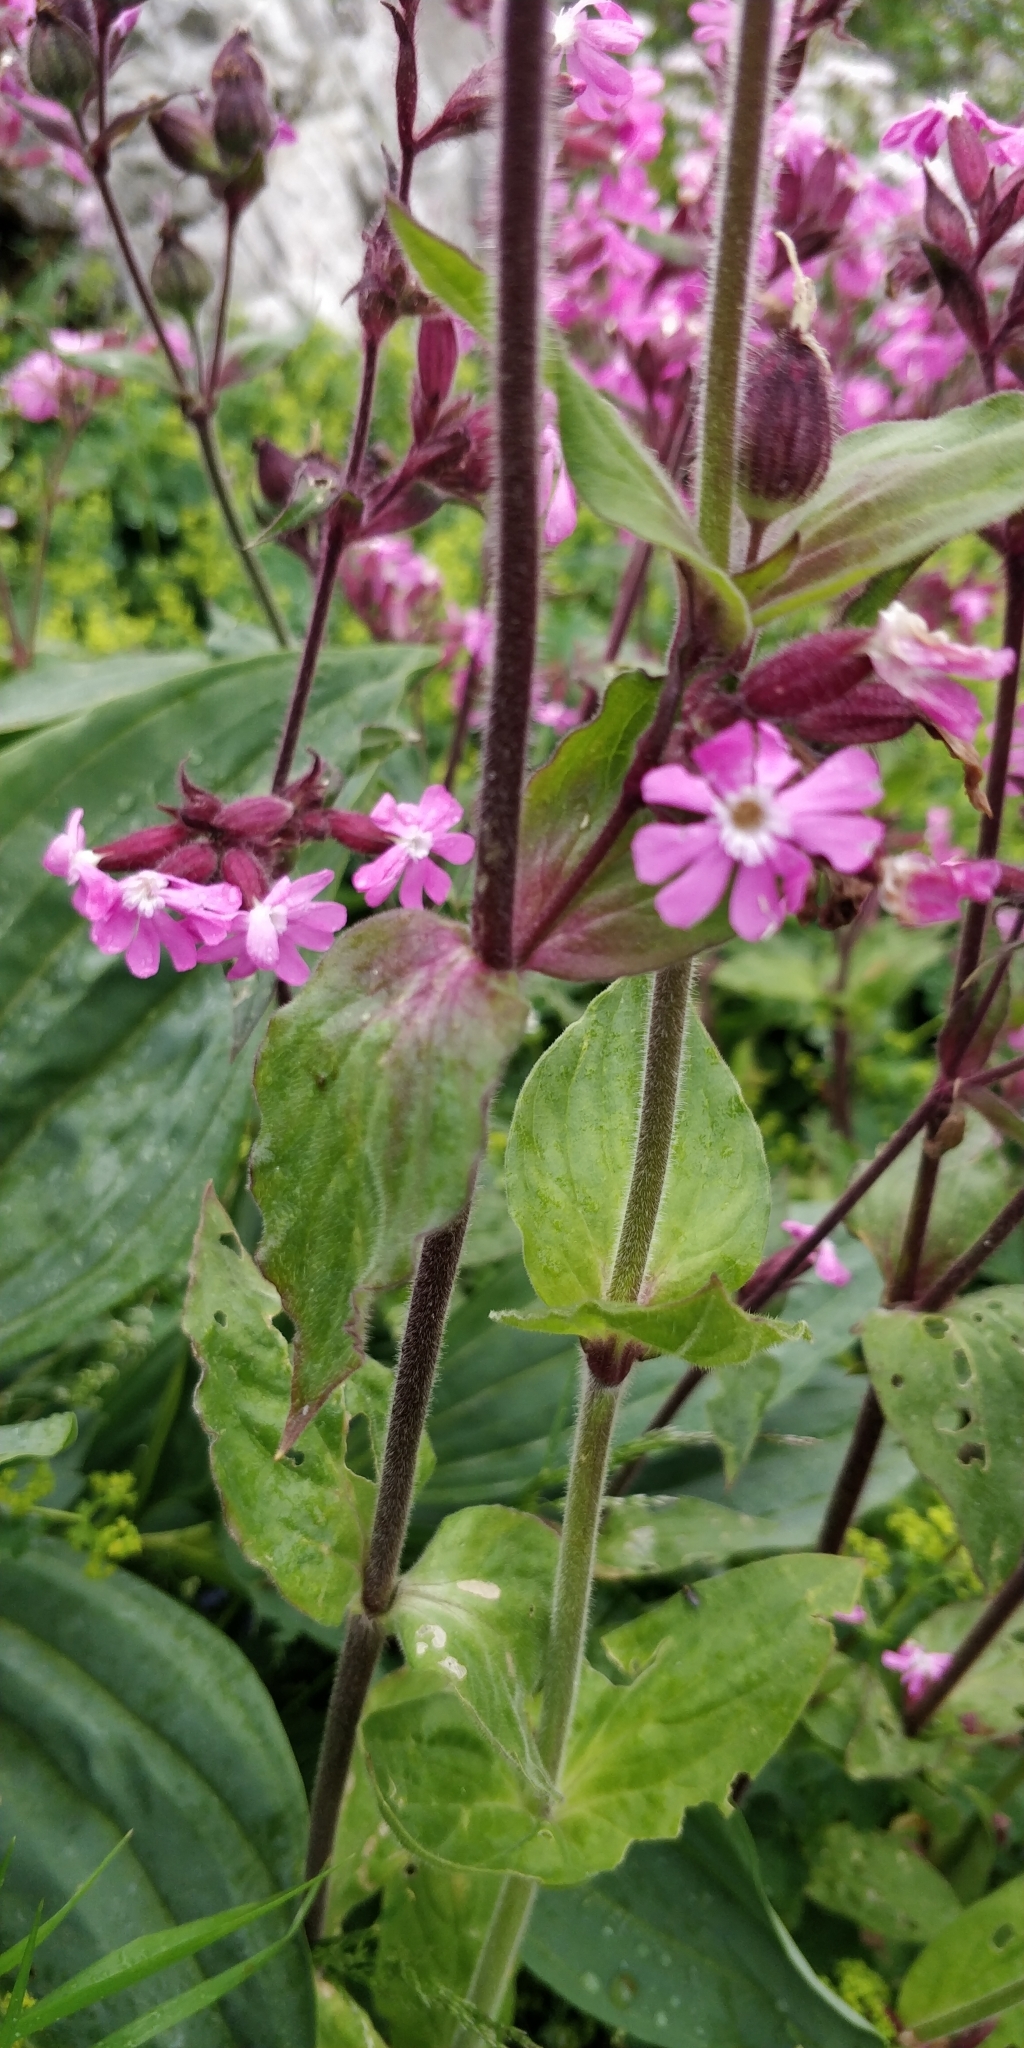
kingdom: Plantae
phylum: Tracheophyta
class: Magnoliopsida
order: Caryophyllales
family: Caryophyllaceae
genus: Silene
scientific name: Silene dioica
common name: Red campion
